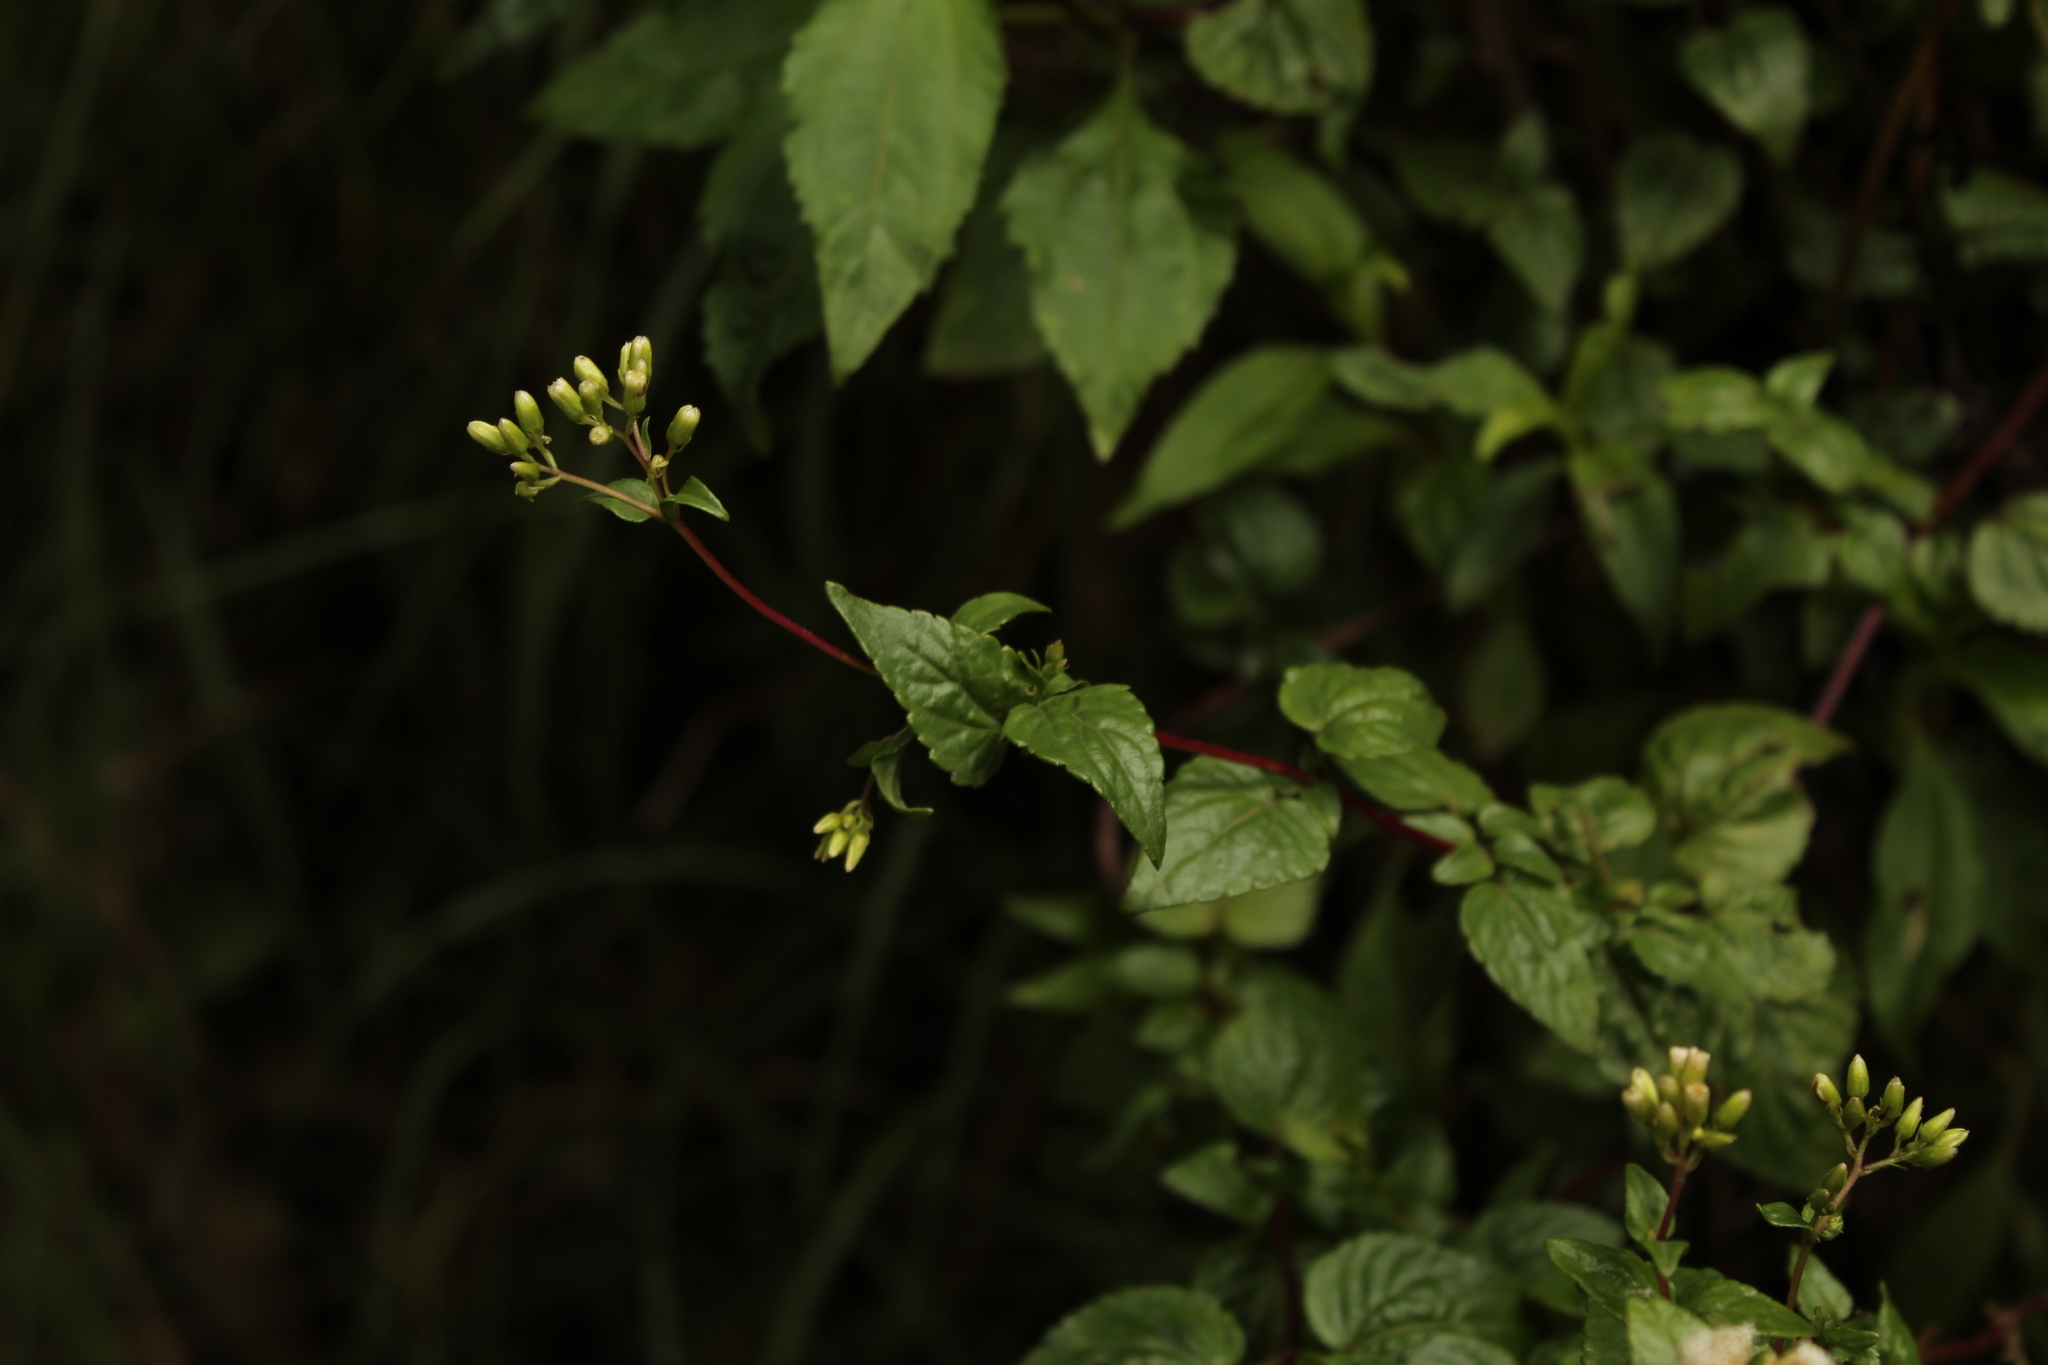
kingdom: Plantae
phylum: Tracheophyta
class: Magnoliopsida
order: Asterales
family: Asteraceae
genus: Ageratina
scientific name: Ageratina gracilis
